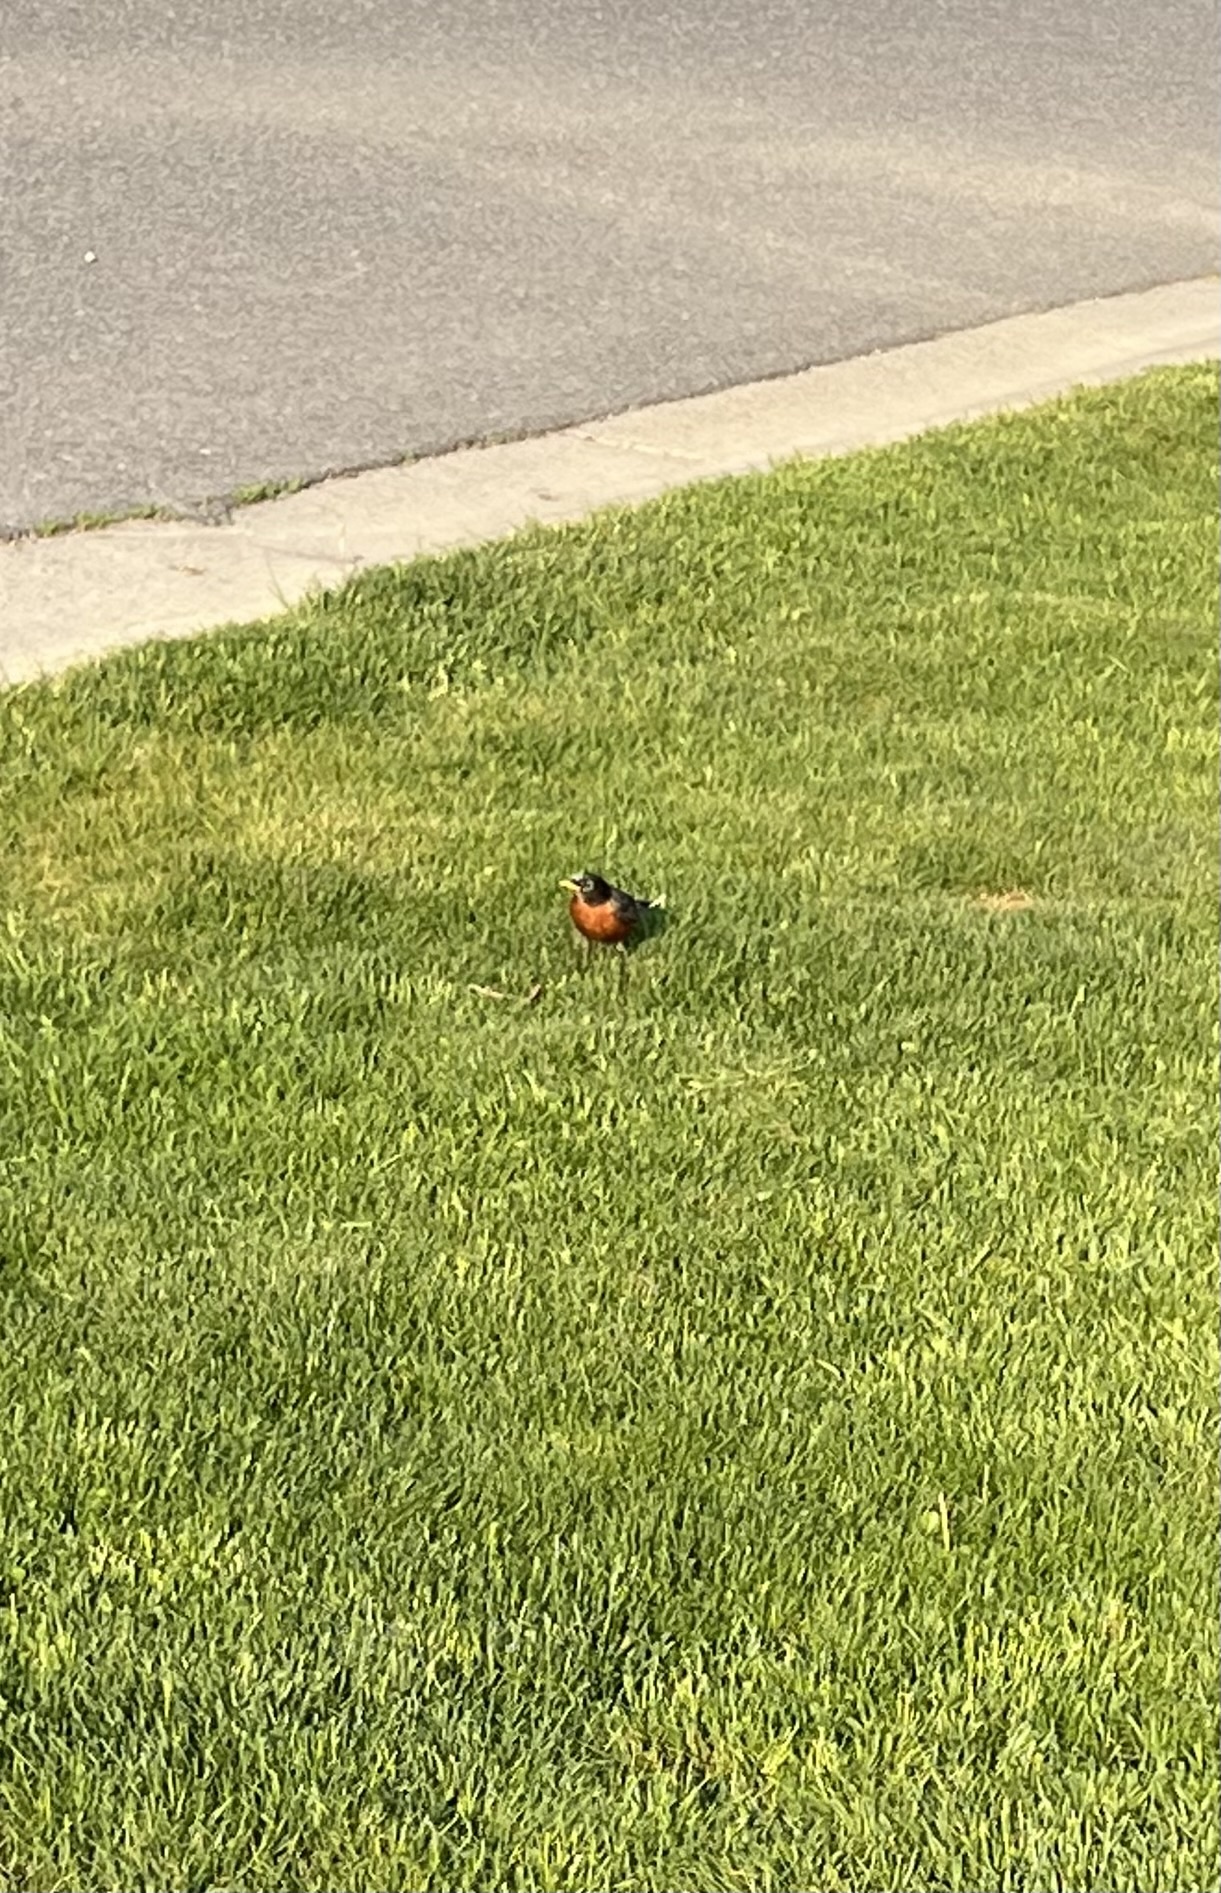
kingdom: Animalia
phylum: Chordata
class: Aves
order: Passeriformes
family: Turdidae
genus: Turdus
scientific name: Turdus migratorius
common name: American robin
